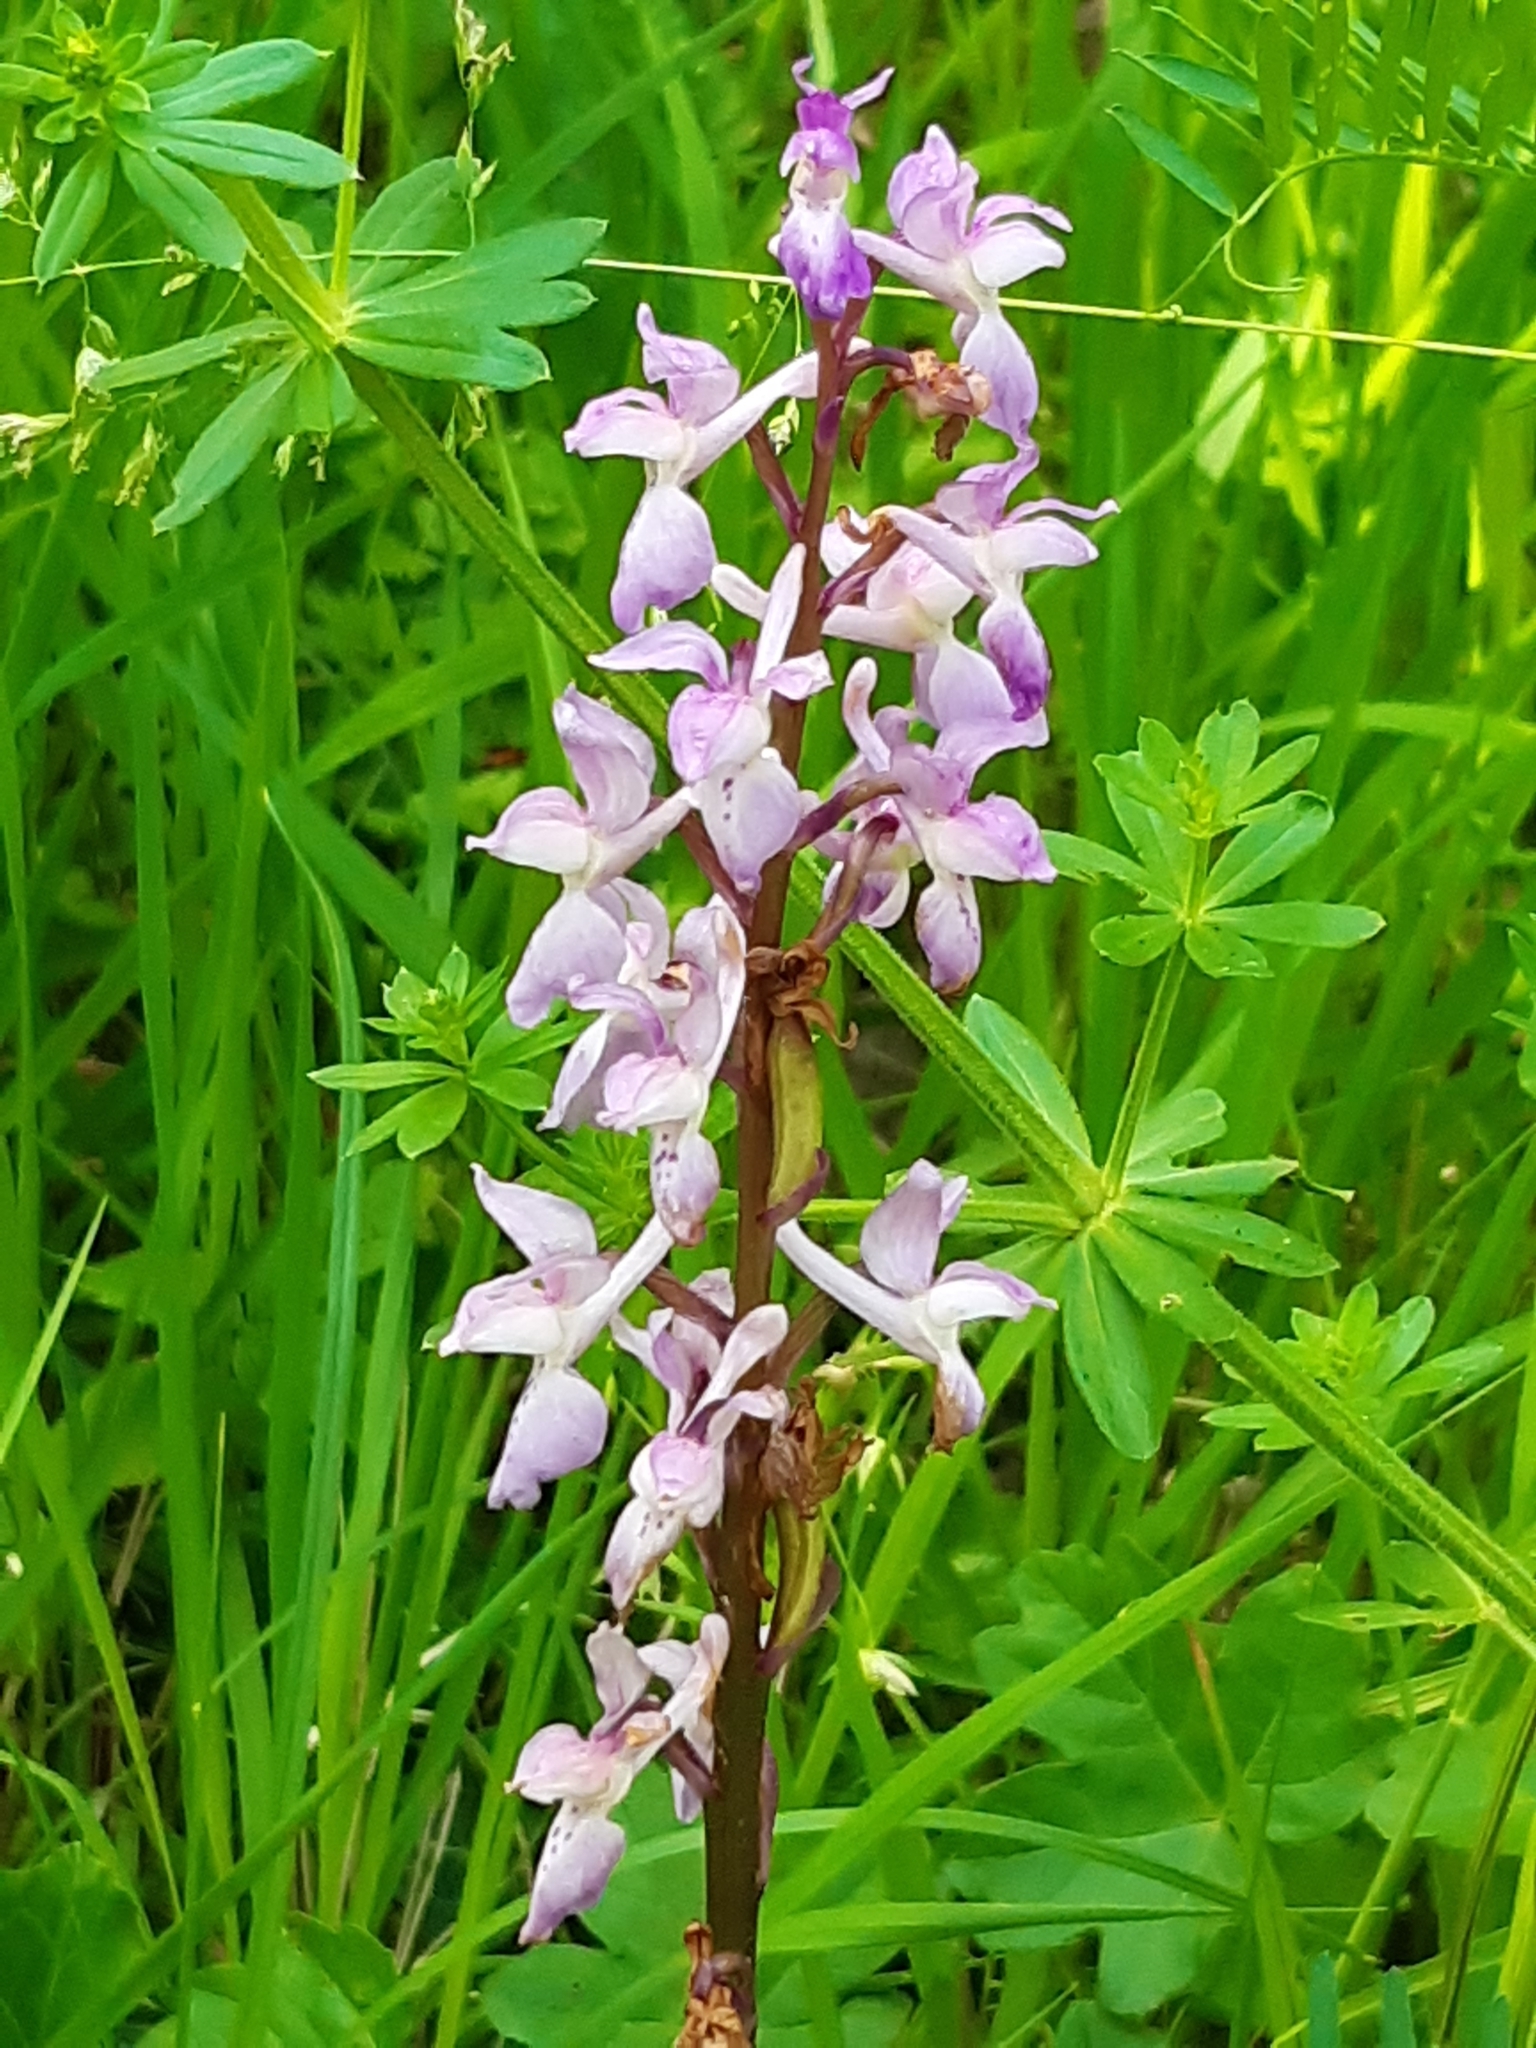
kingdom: Plantae
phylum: Tracheophyta
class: Liliopsida
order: Asparagales
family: Orchidaceae
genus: Orchis
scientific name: Orchis mascula
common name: Early-purple orchid
